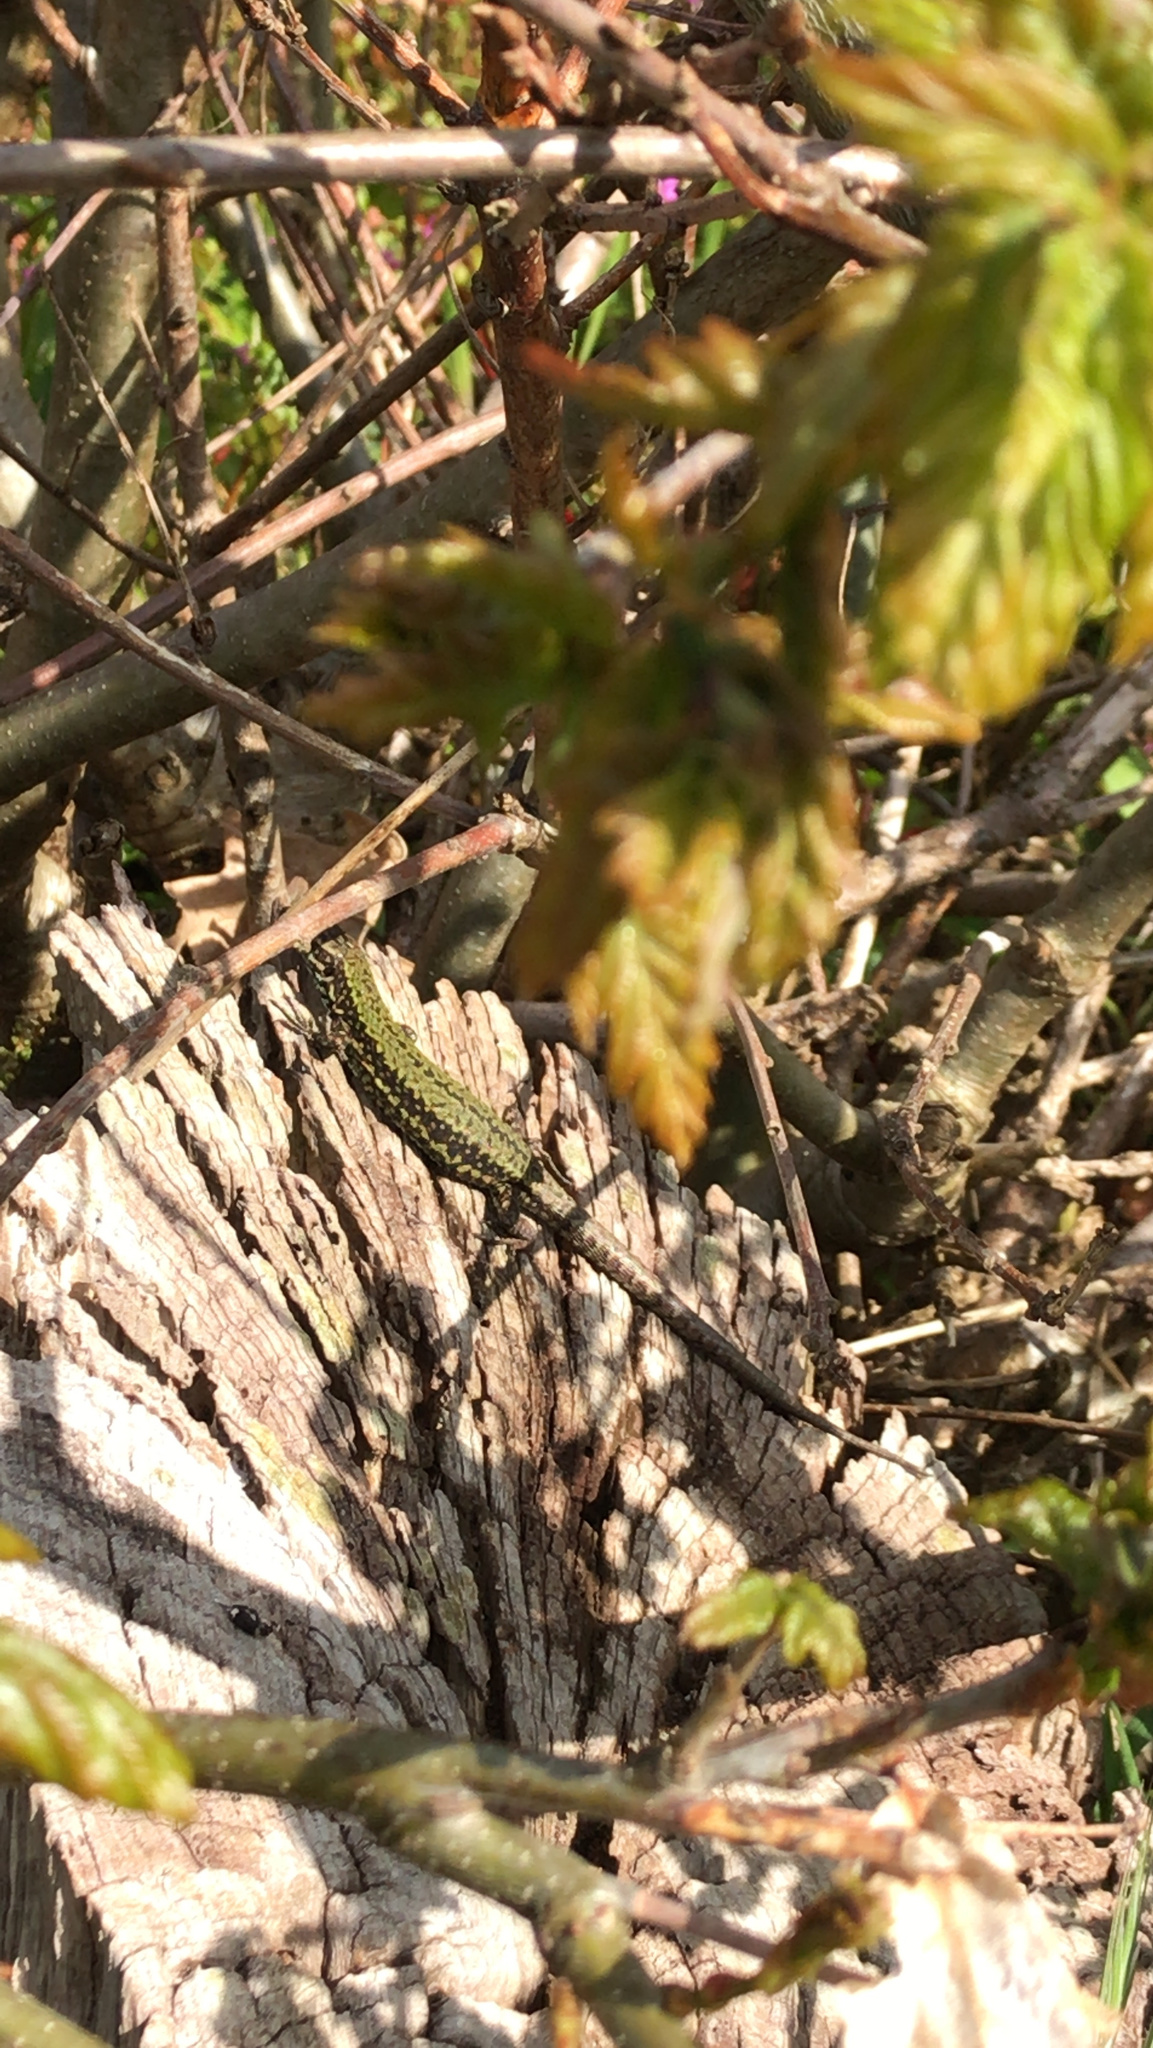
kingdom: Animalia
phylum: Chordata
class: Squamata
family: Lacertidae
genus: Podarcis
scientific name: Podarcis muralis
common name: Common wall lizard
